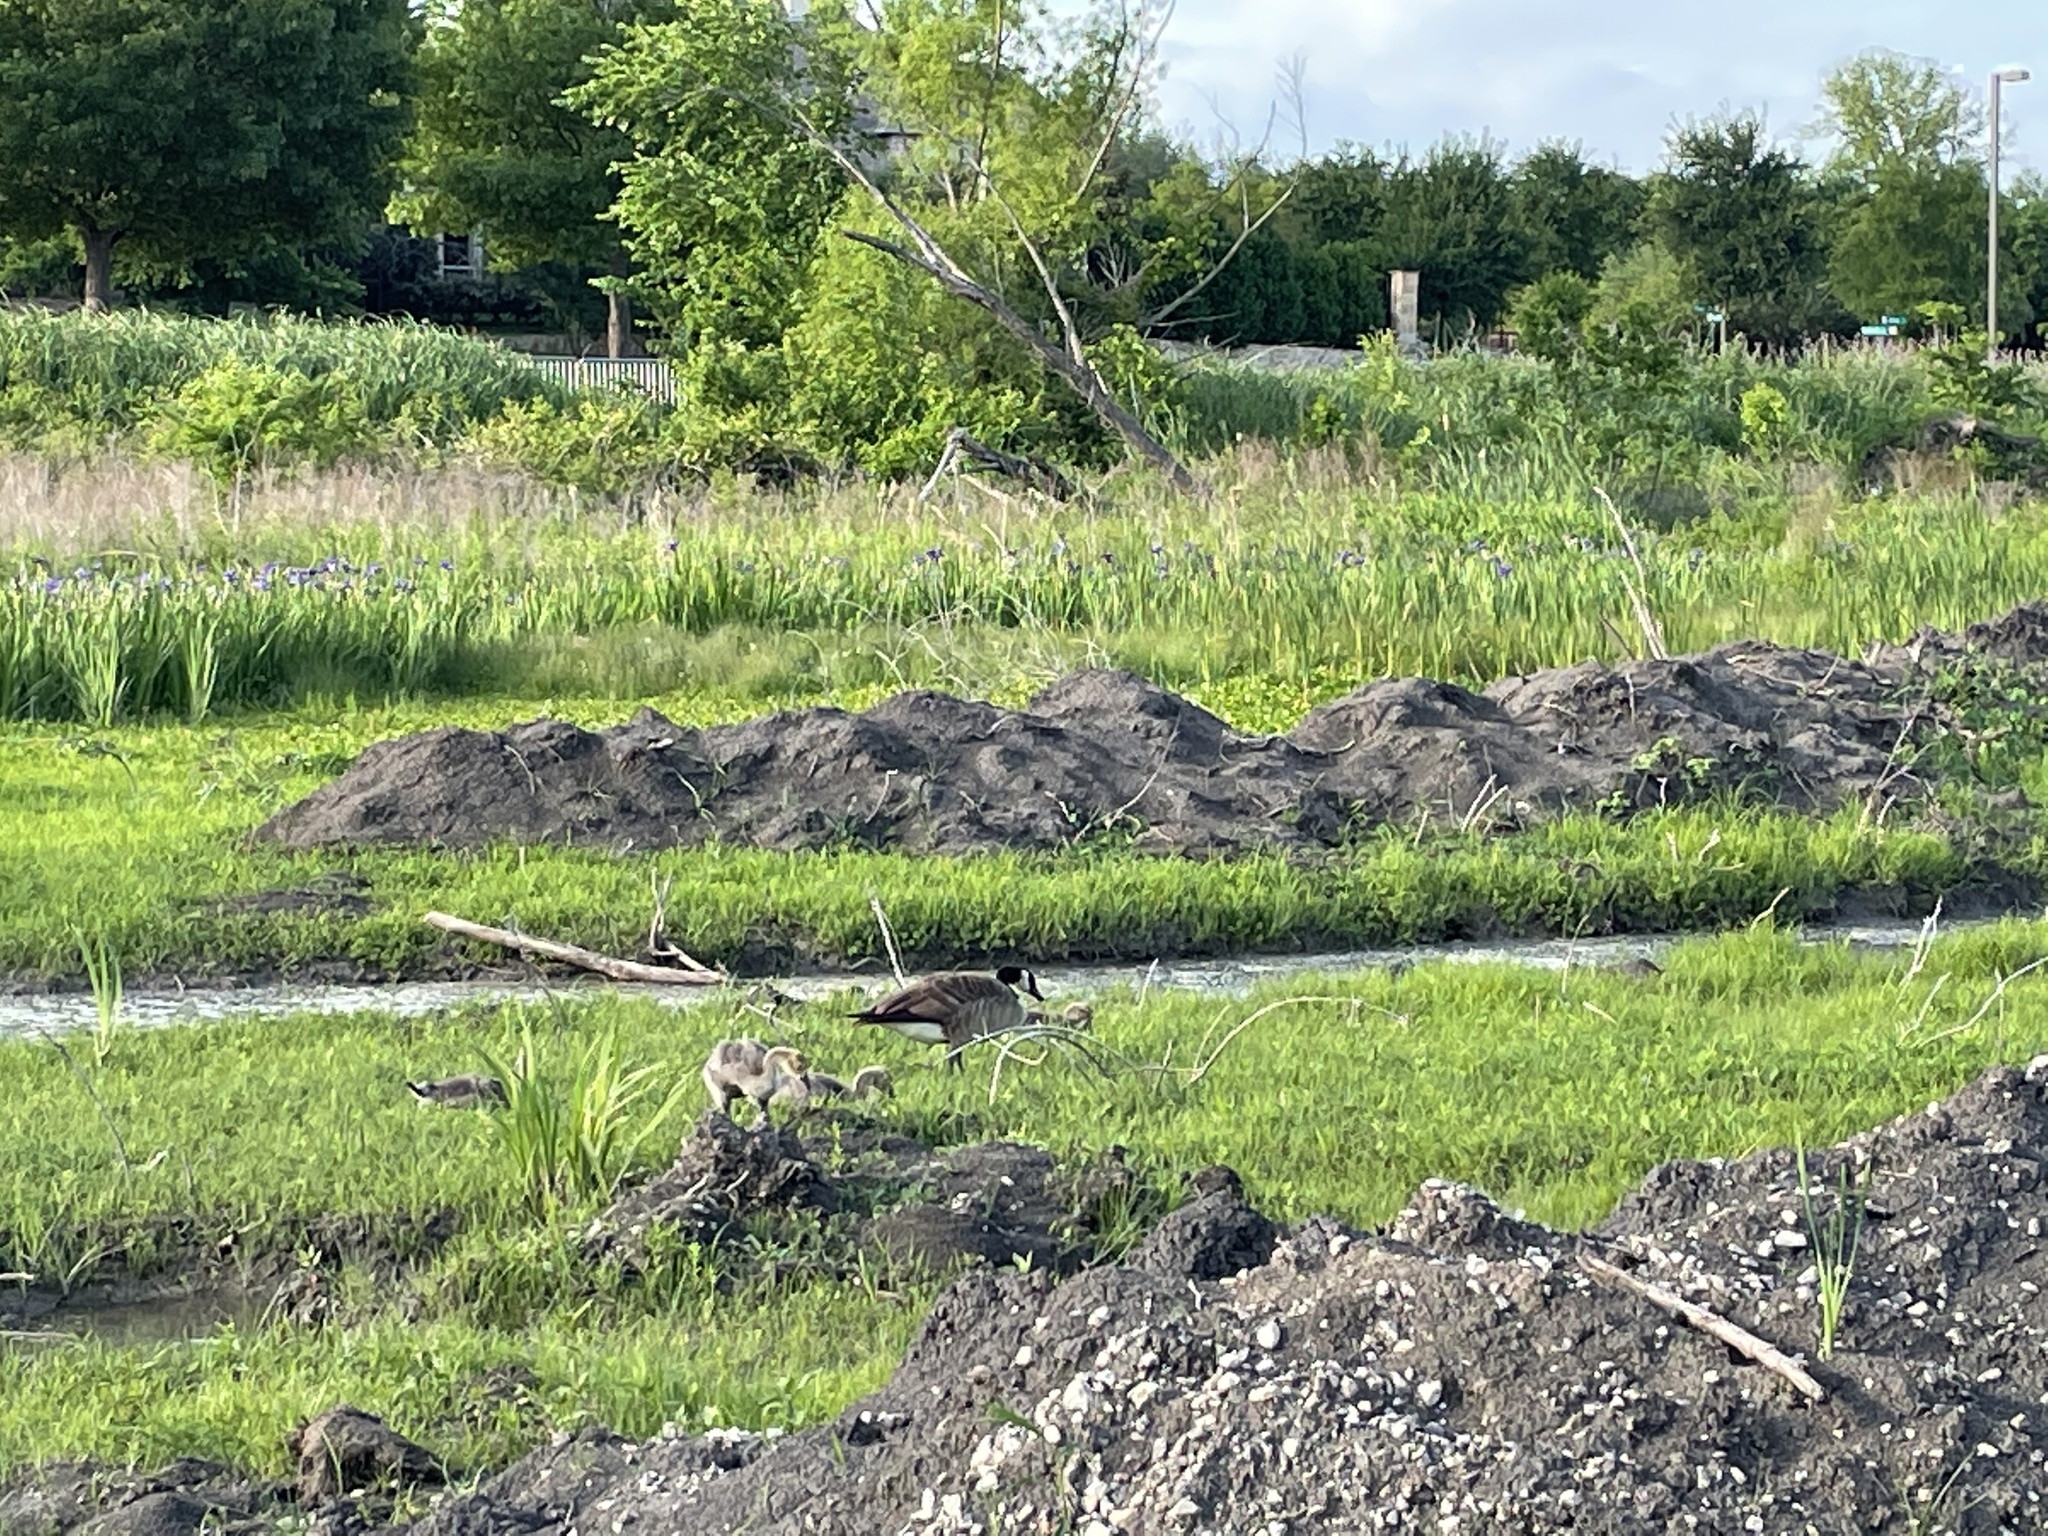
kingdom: Animalia
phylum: Chordata
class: Aves
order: Anseriformes
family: Anatidae
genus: Branta
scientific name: Branta canadensis
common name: Canada goose
